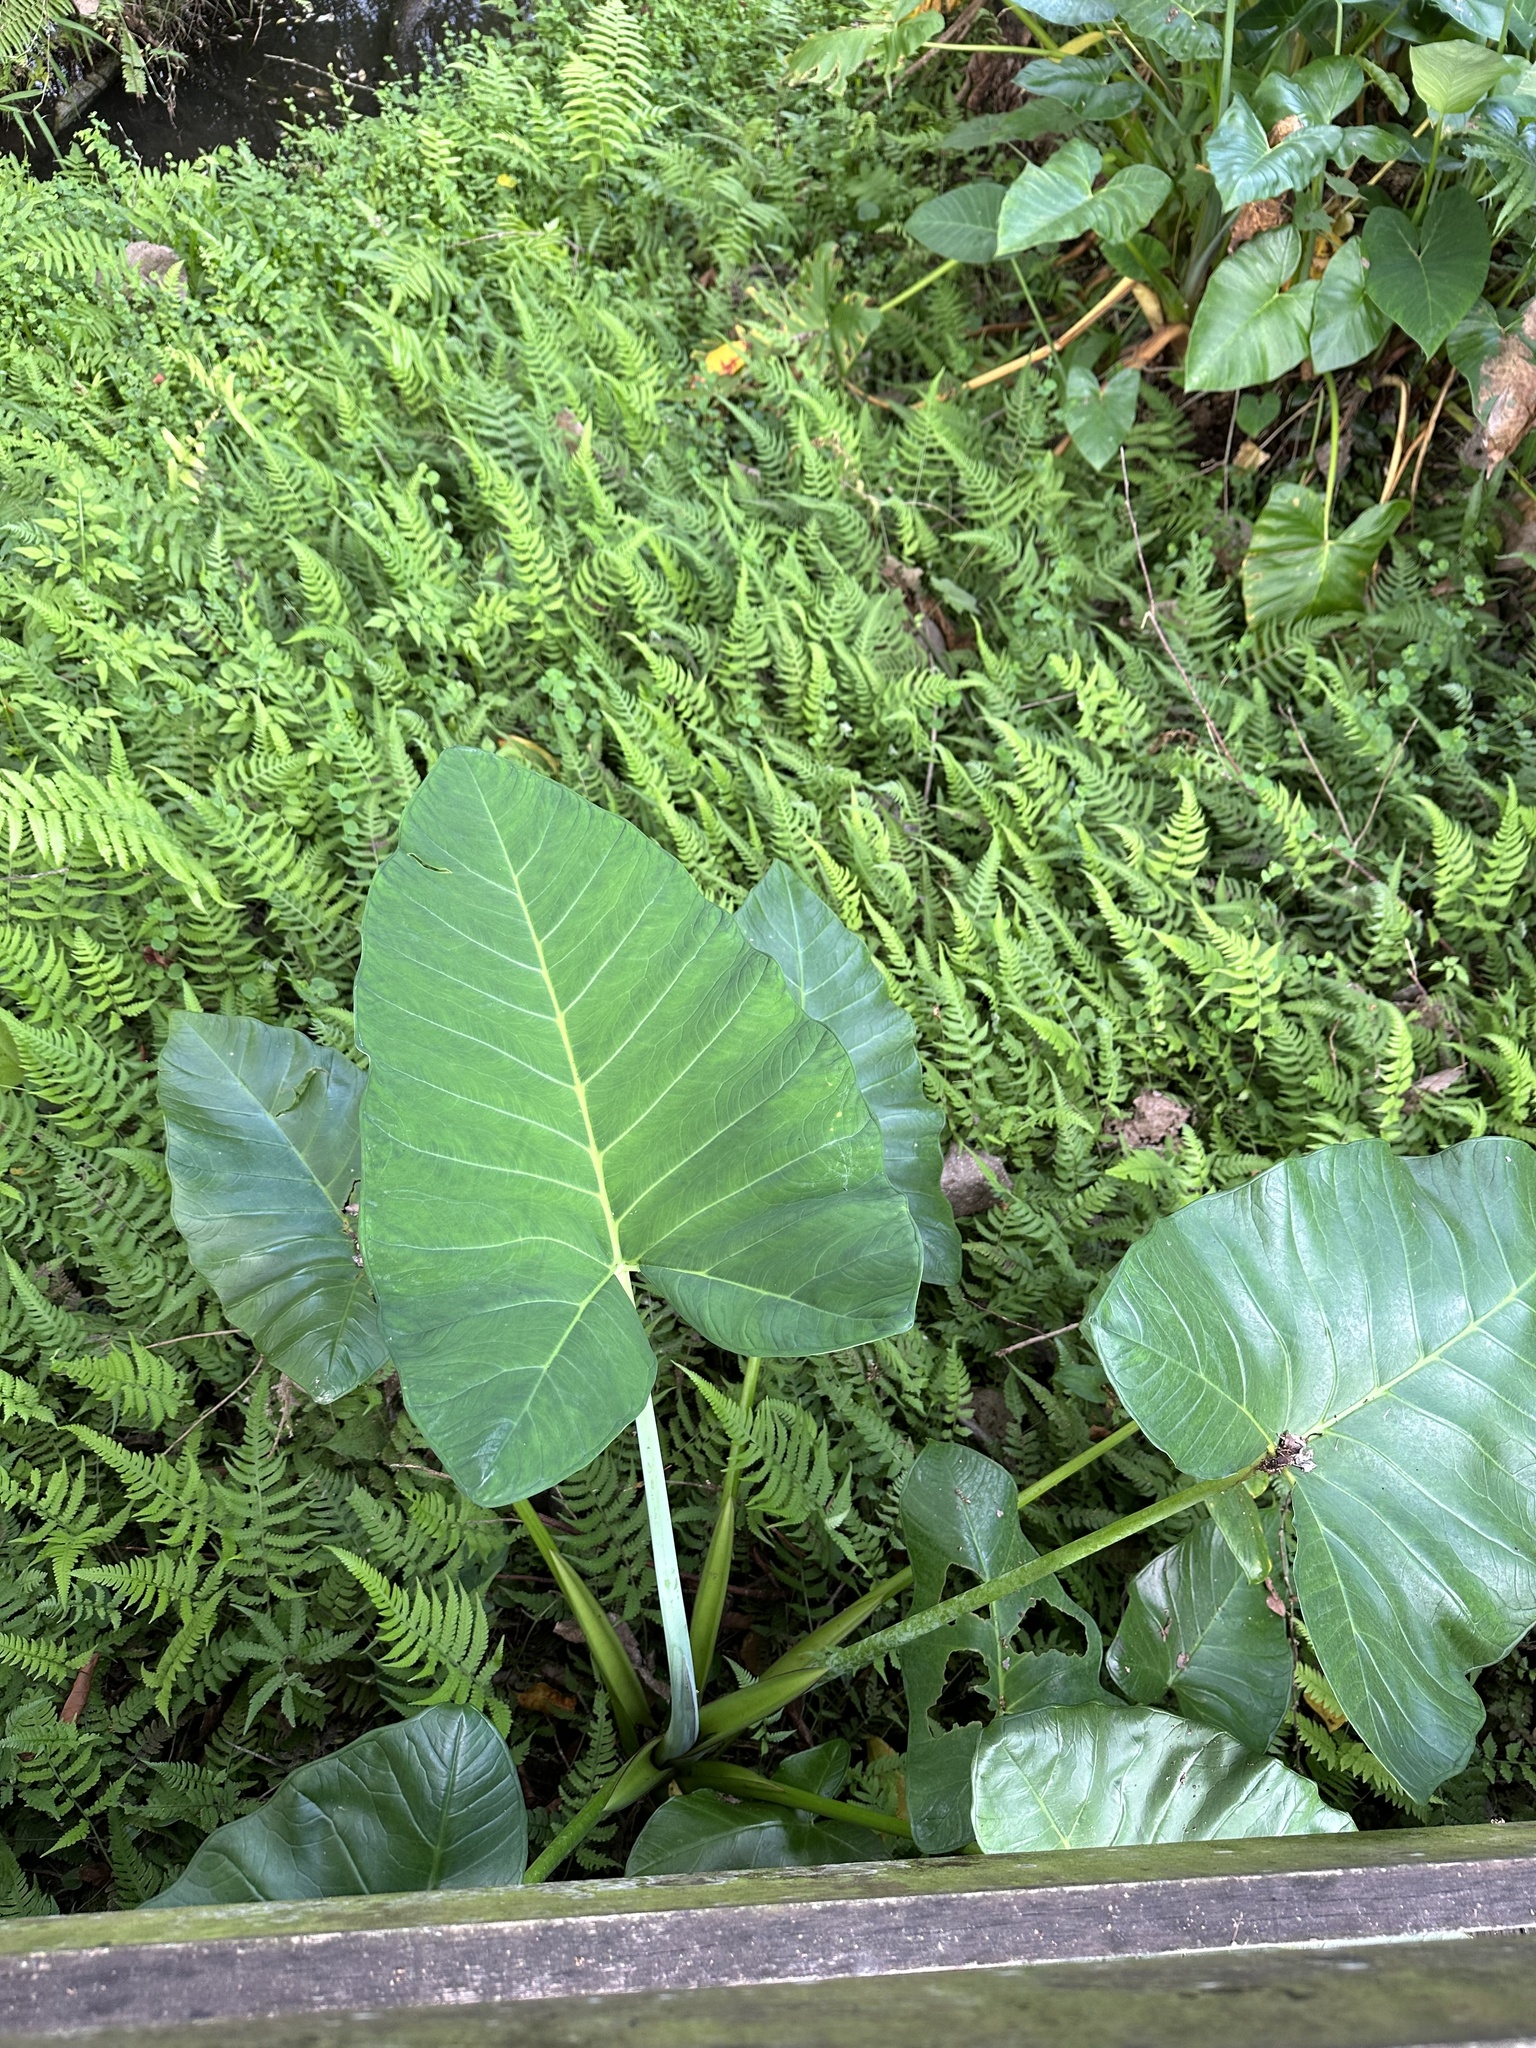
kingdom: Plantae
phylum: Tracheophyta
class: Liliopsida
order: Alismatales
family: Araceae
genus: Xanthosoma
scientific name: Xanthosoma sagittifolium
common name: Arrowleaf elephant's ear
